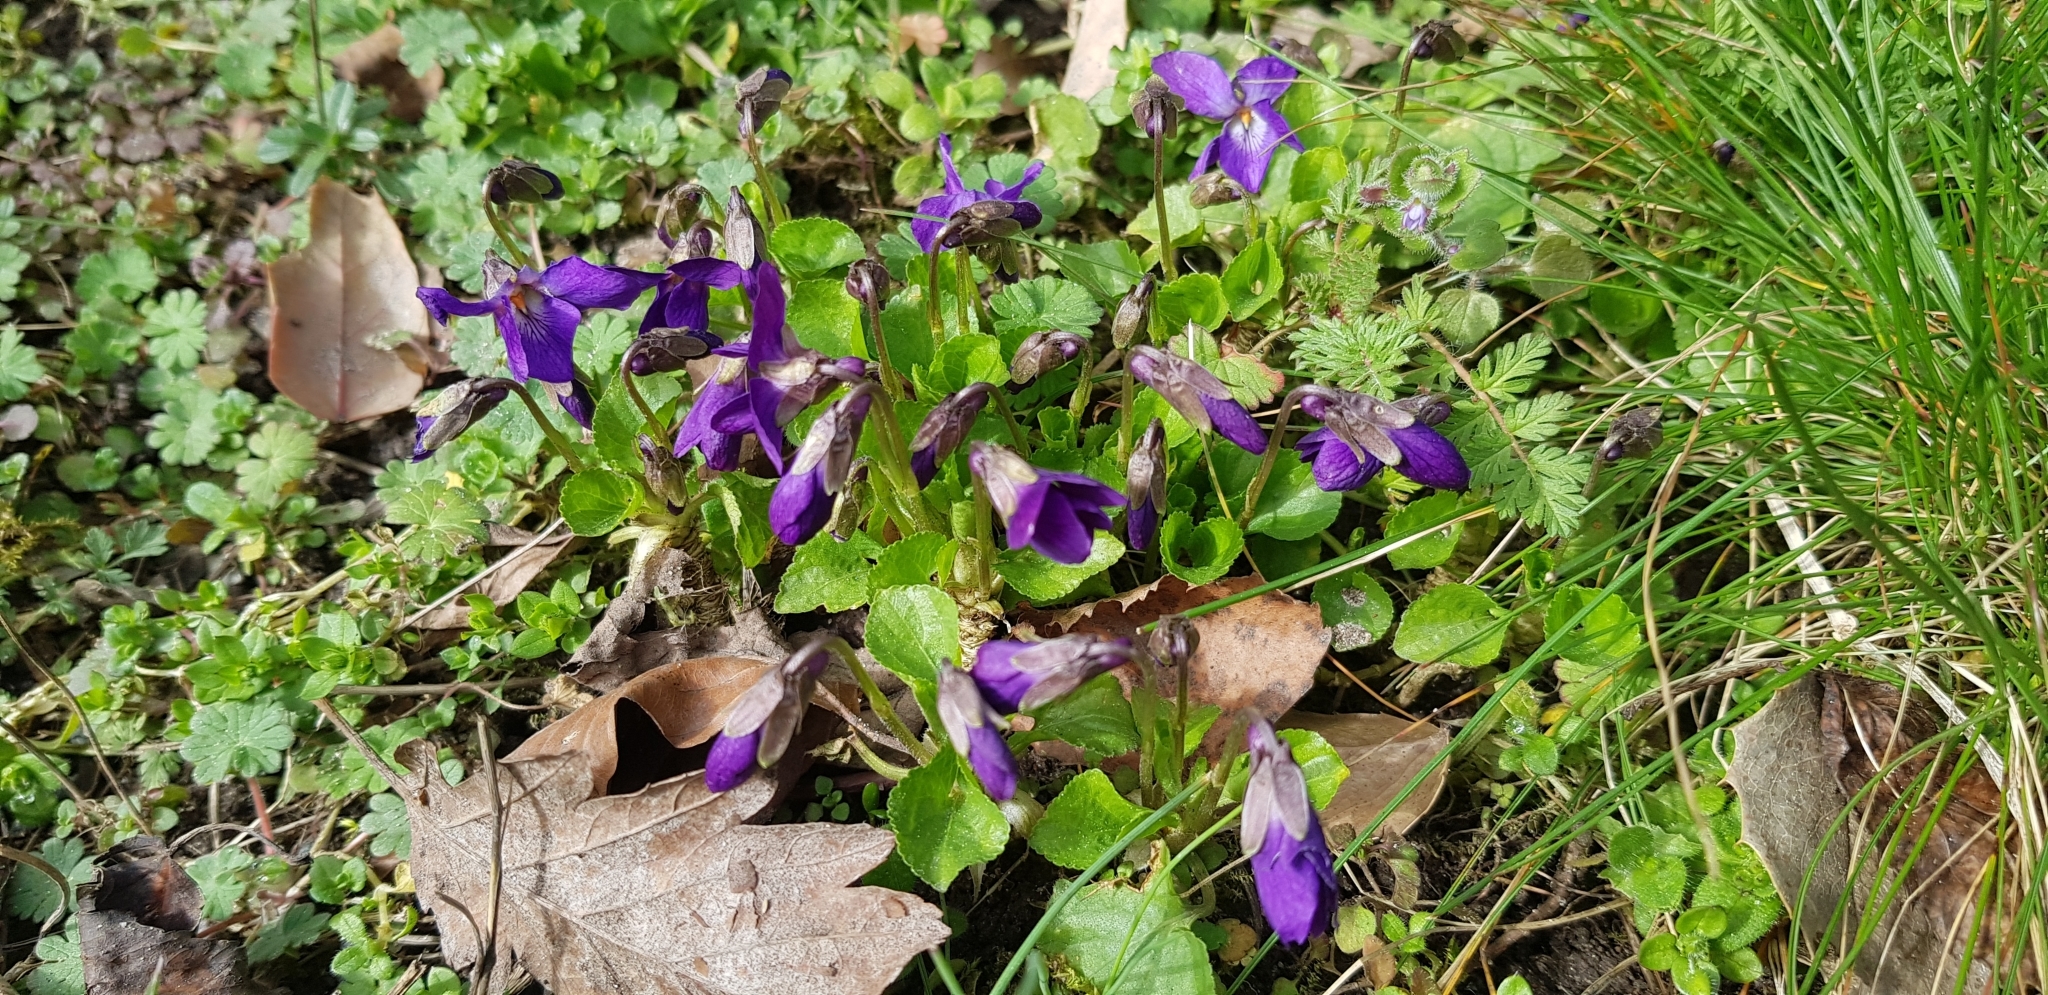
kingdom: Plantae
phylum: Tracheophyta
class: Magnoliopsida
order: Malpighiales
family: Violaceae
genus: Viola
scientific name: Viola odorata
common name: Sweet violet
